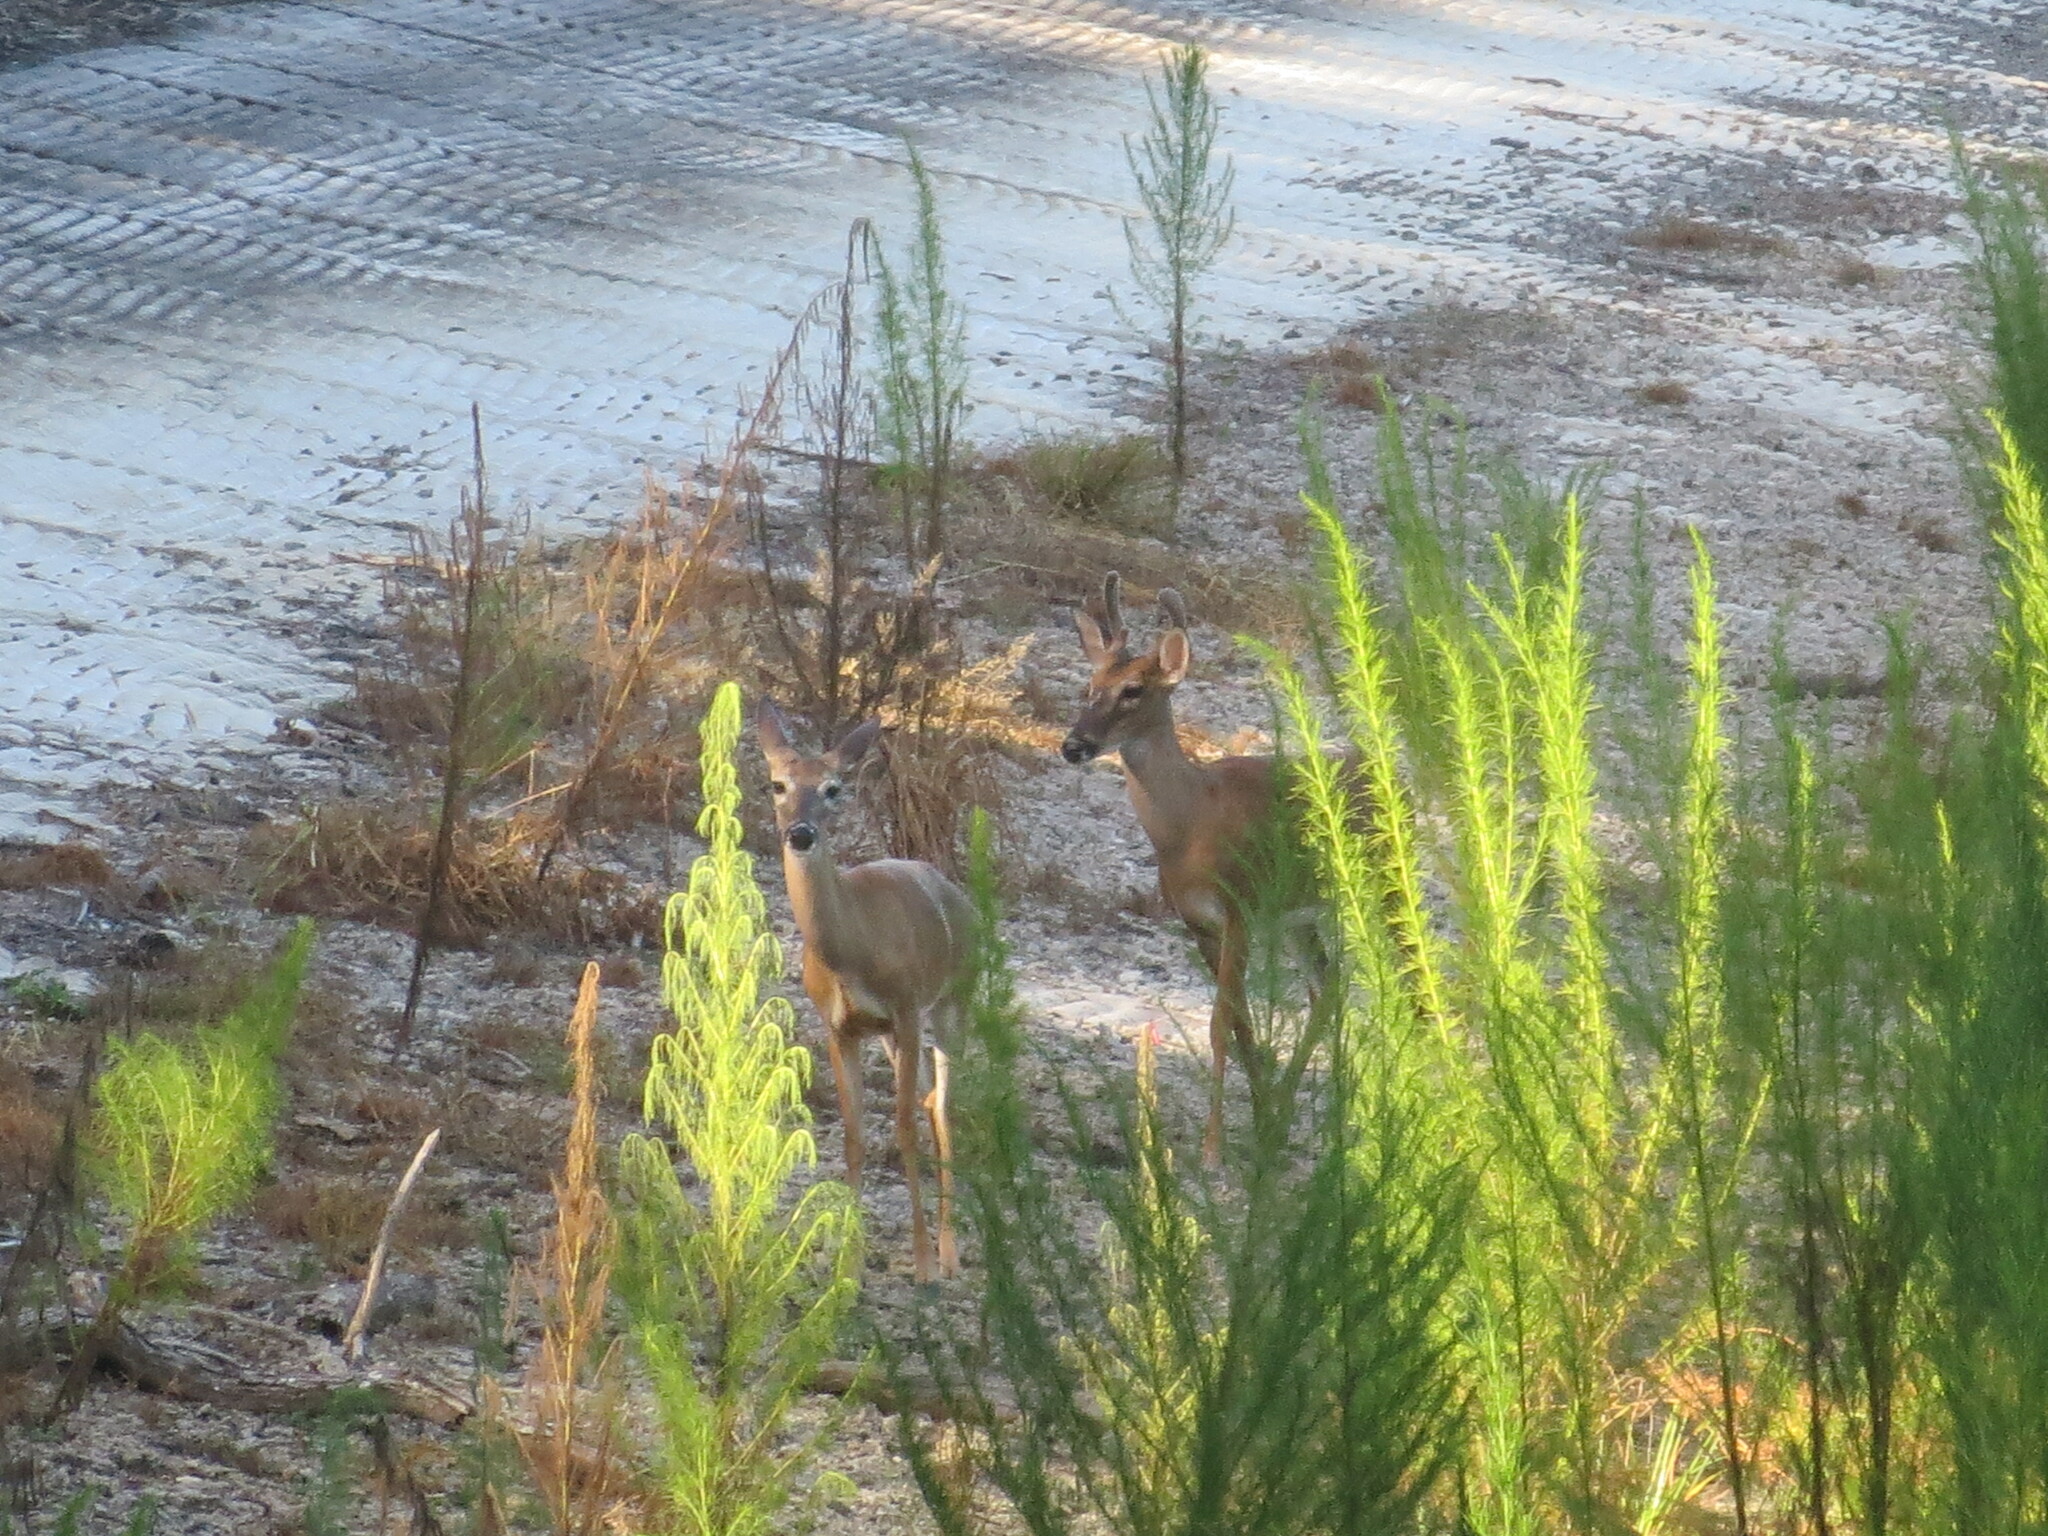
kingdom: Animalia
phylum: Chordata
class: Mammalia
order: Artiodactyla
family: Cervidae
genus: Odocoileus
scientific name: Odocoileus virginianus
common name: White-tailed deer
